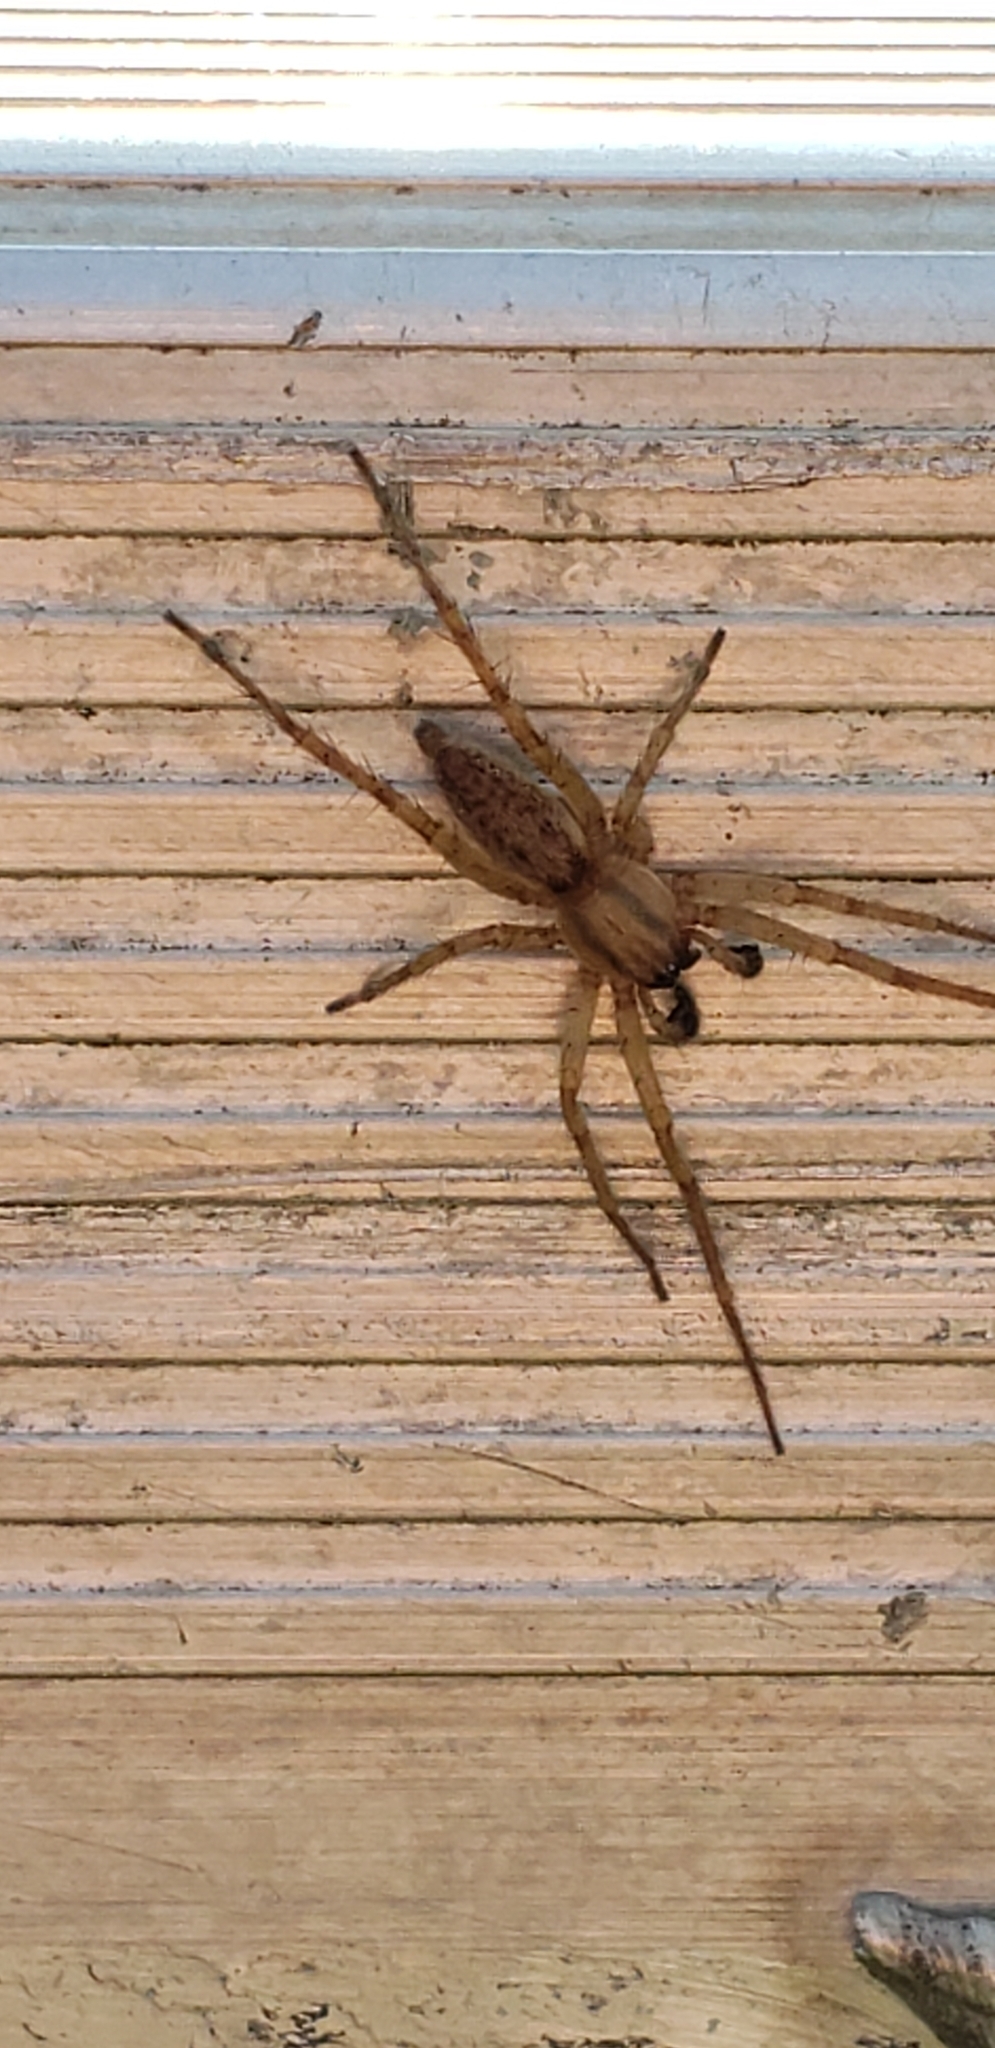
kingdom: Animalia
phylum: Arthropoda
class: Arachnida
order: Araneae
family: Anyphaenidae
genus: Hibana
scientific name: Hibana gracilis
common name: Garden ghost spider
